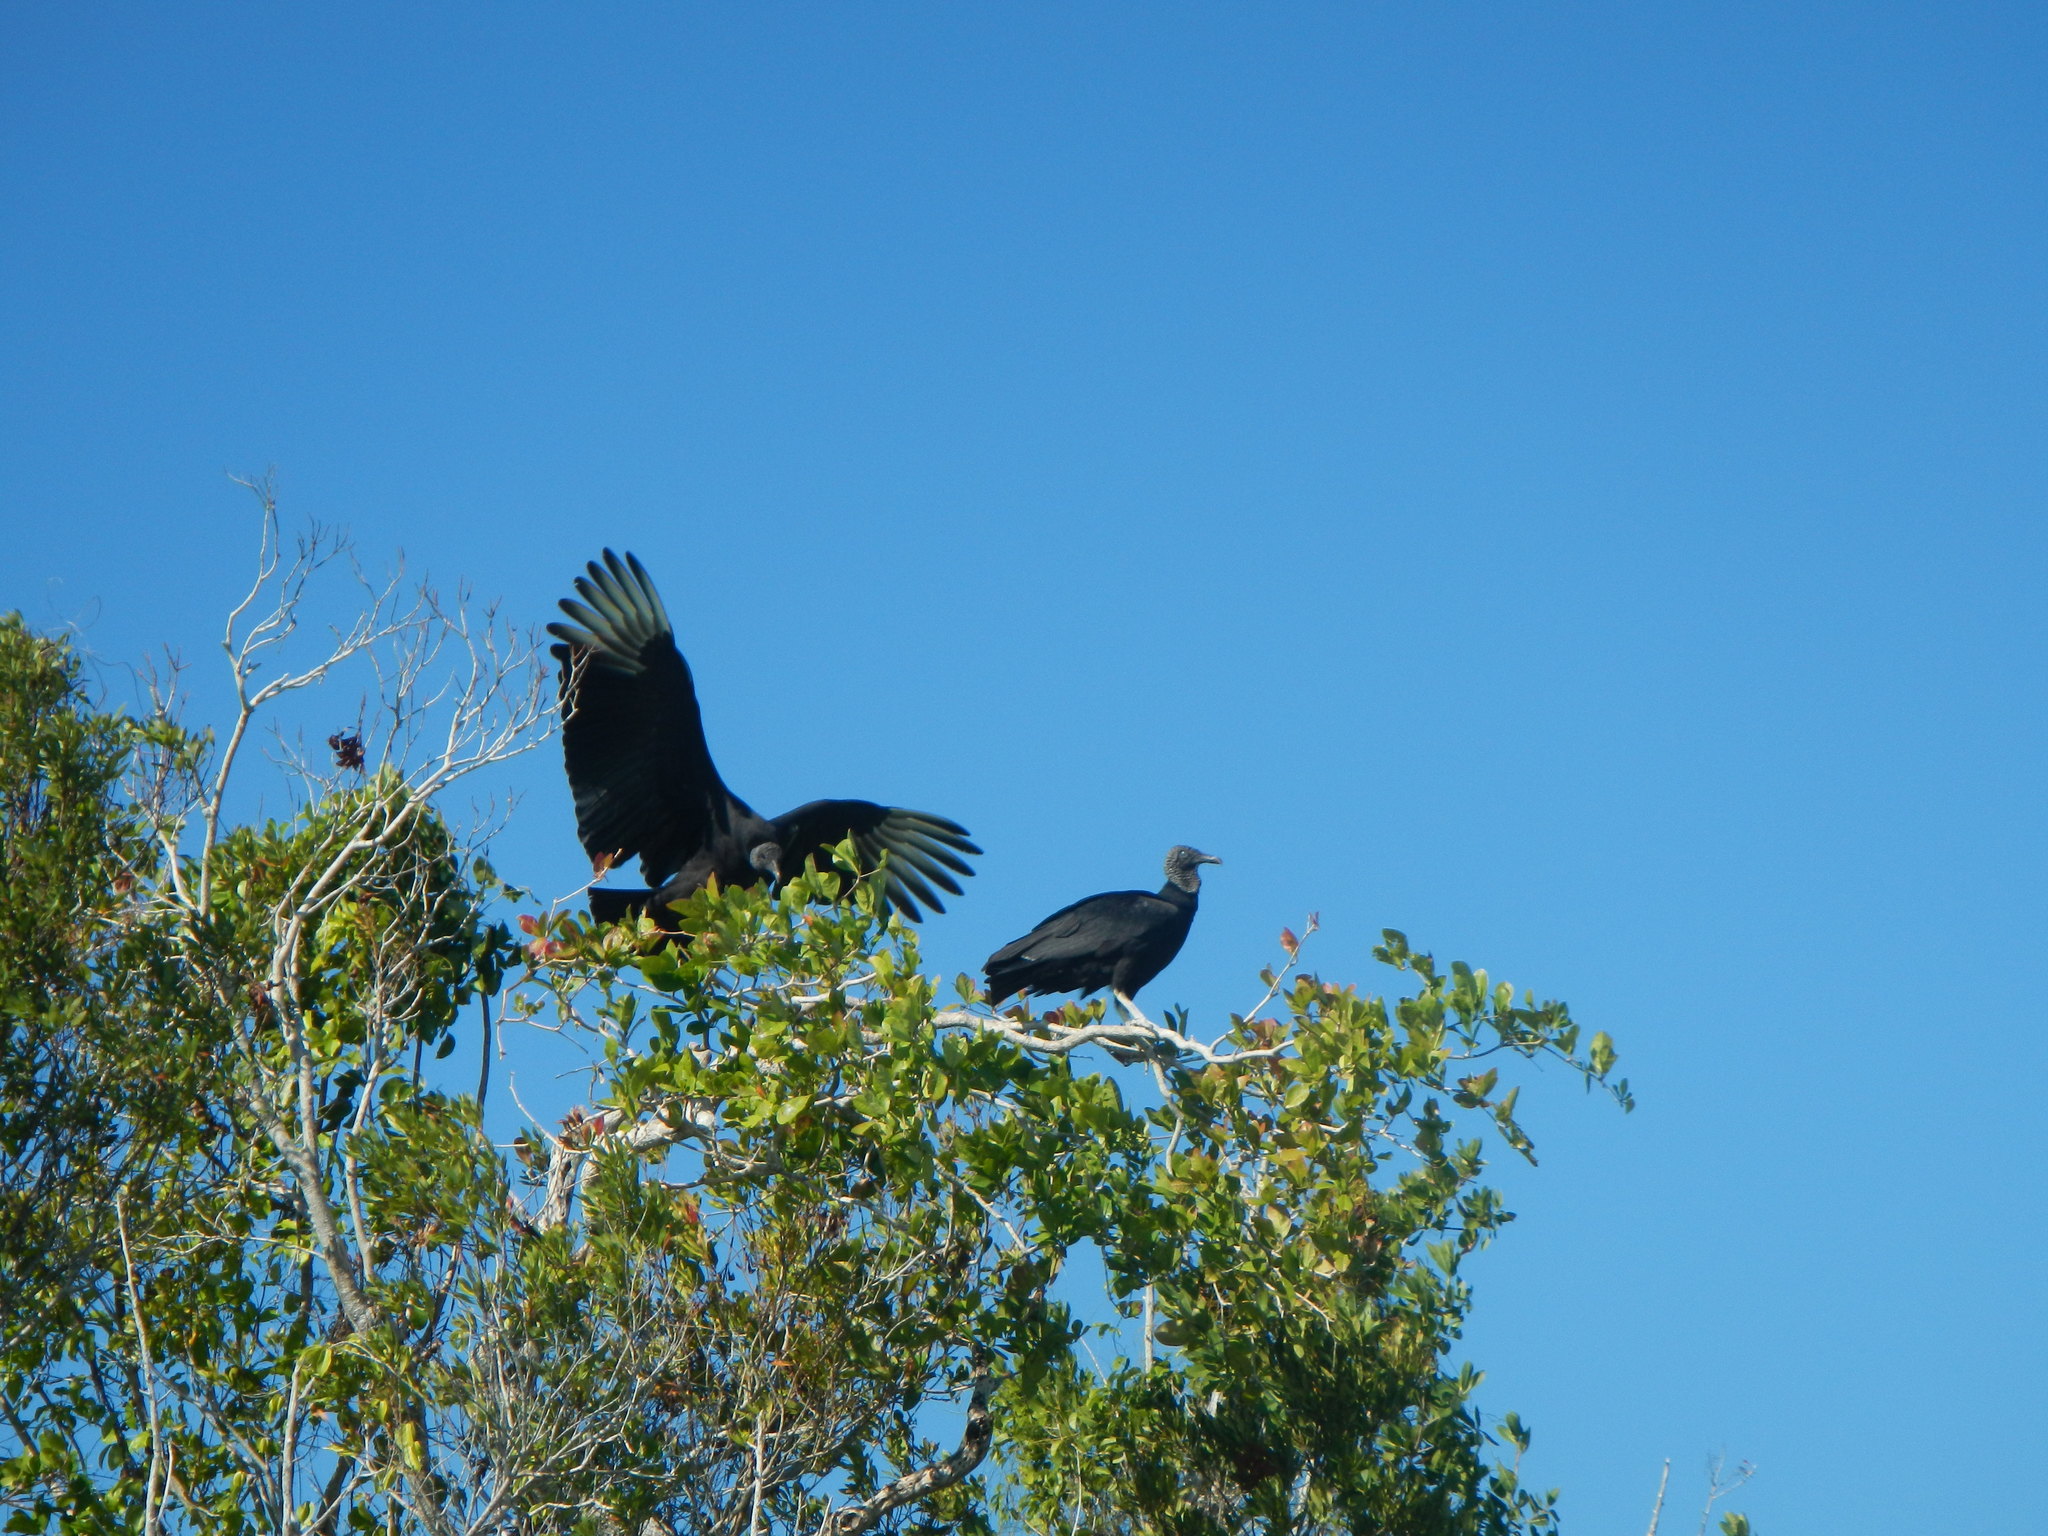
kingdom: Animalia
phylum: Chordata
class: Aves
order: Accipitriformes
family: Cathartidae
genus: Coragyps
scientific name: Coragyps atratus
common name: Black vulture
